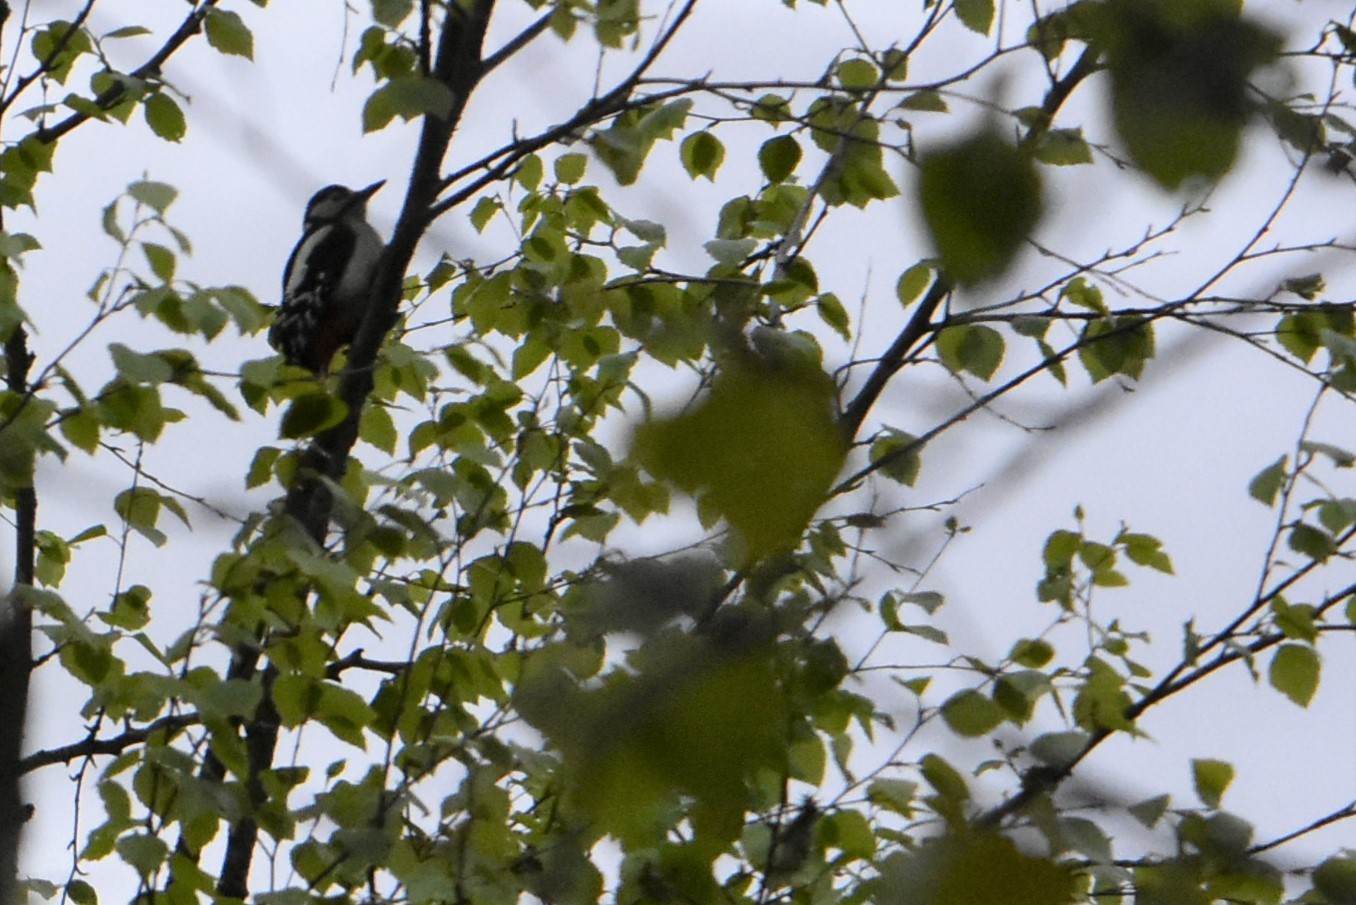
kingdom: Animalia
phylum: Chordata
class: Aves
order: Piciformes
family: Picidae
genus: Dendrocopos
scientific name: Dendrocopos major
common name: Great spotted woodpecker
